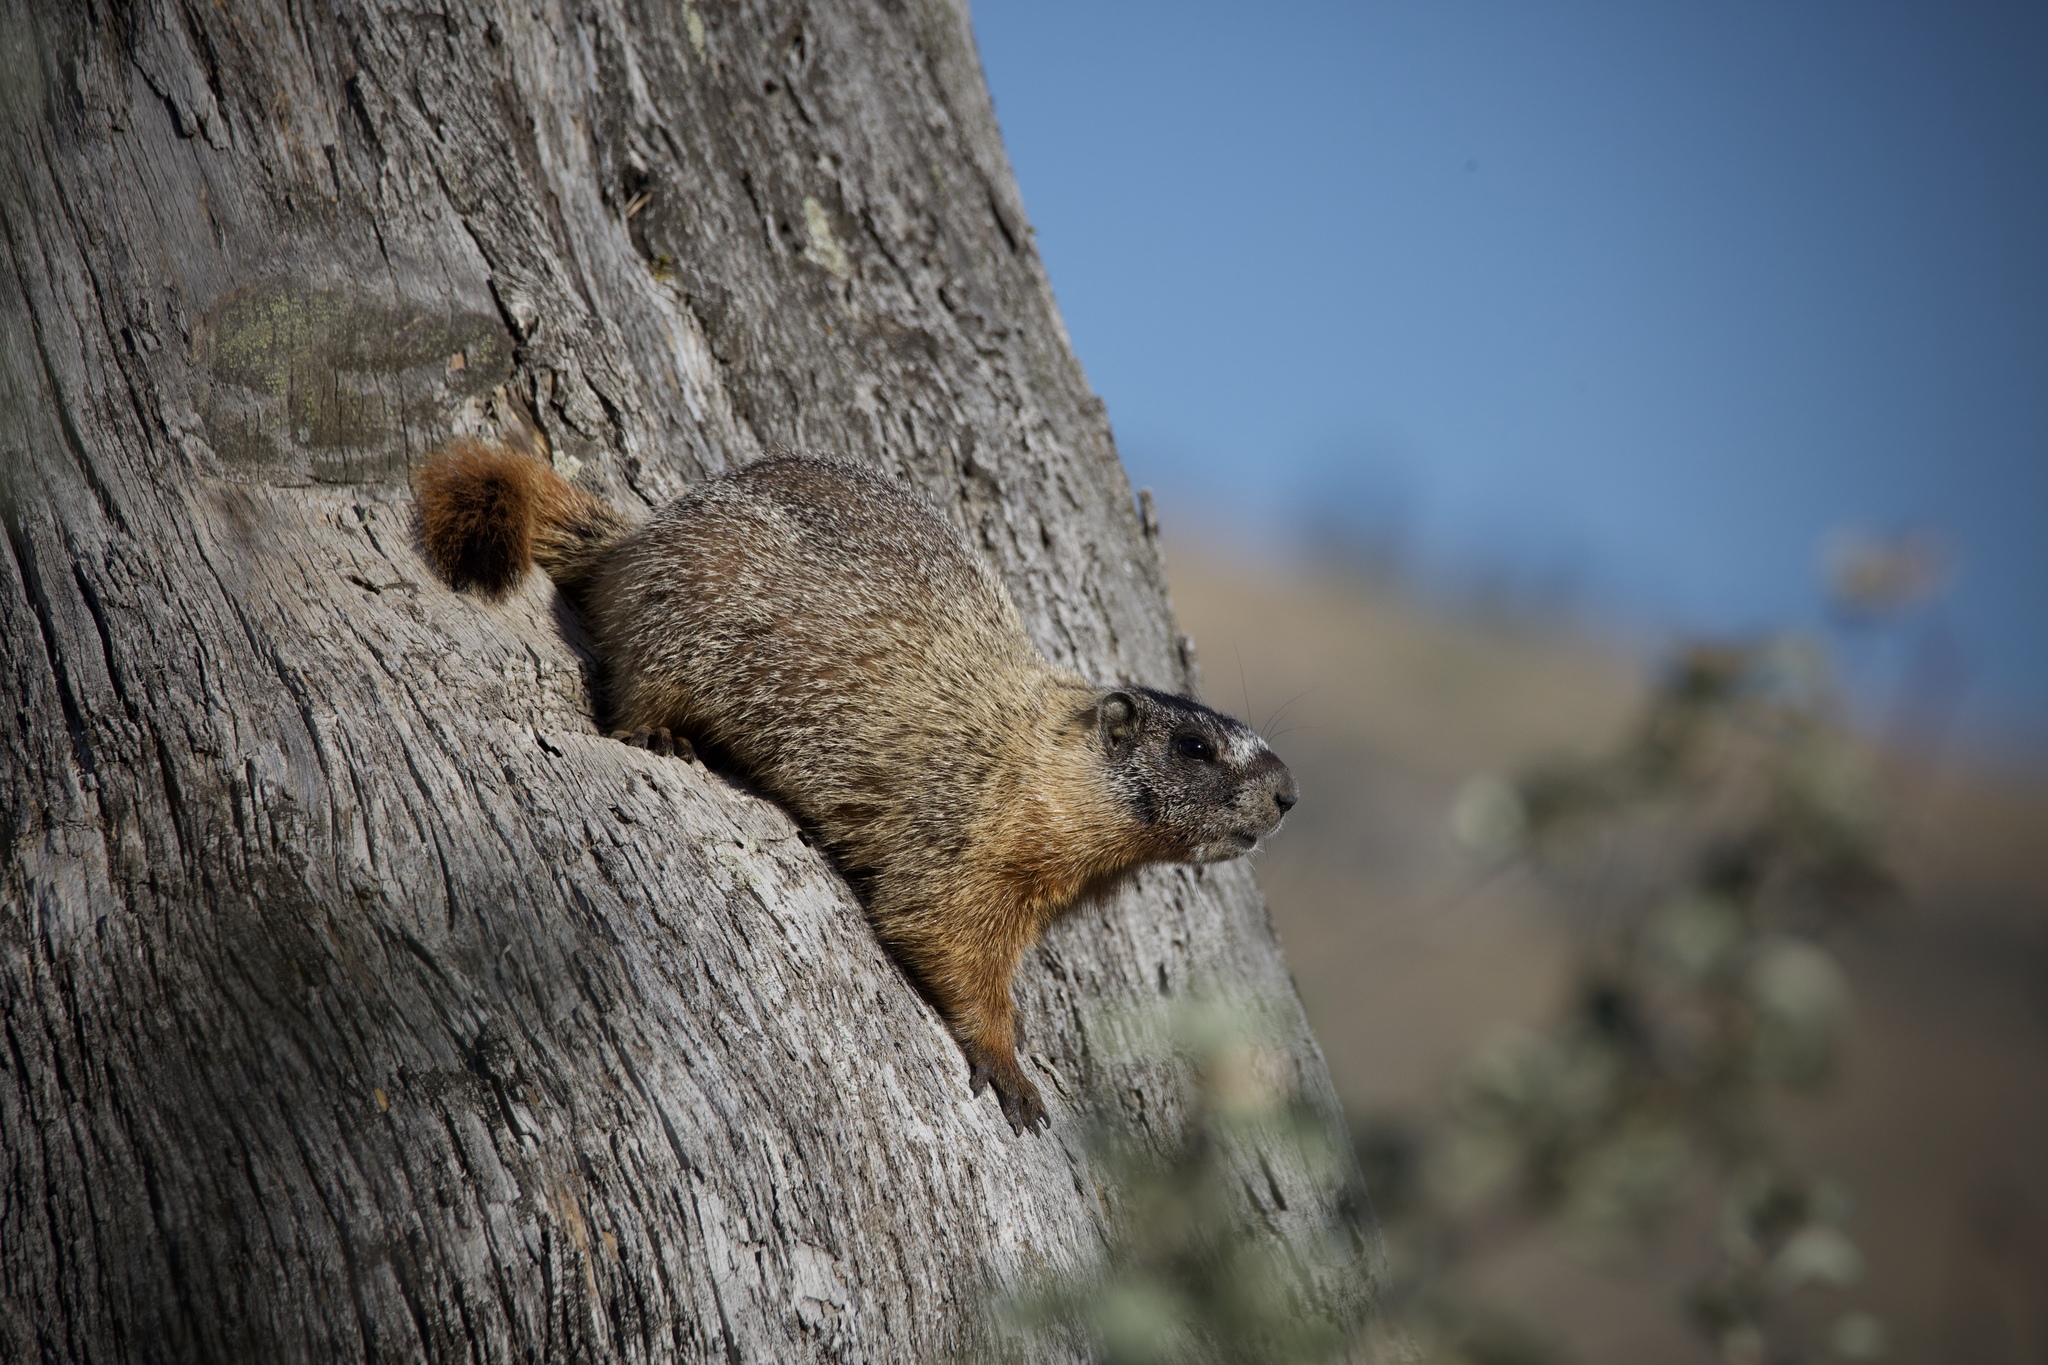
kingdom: Animalia
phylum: Chordata
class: Mammalia
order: Rodentia
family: Sciuridae
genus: Marmota
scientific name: Marmota flaviventris
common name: Yellow-bellied marmot
